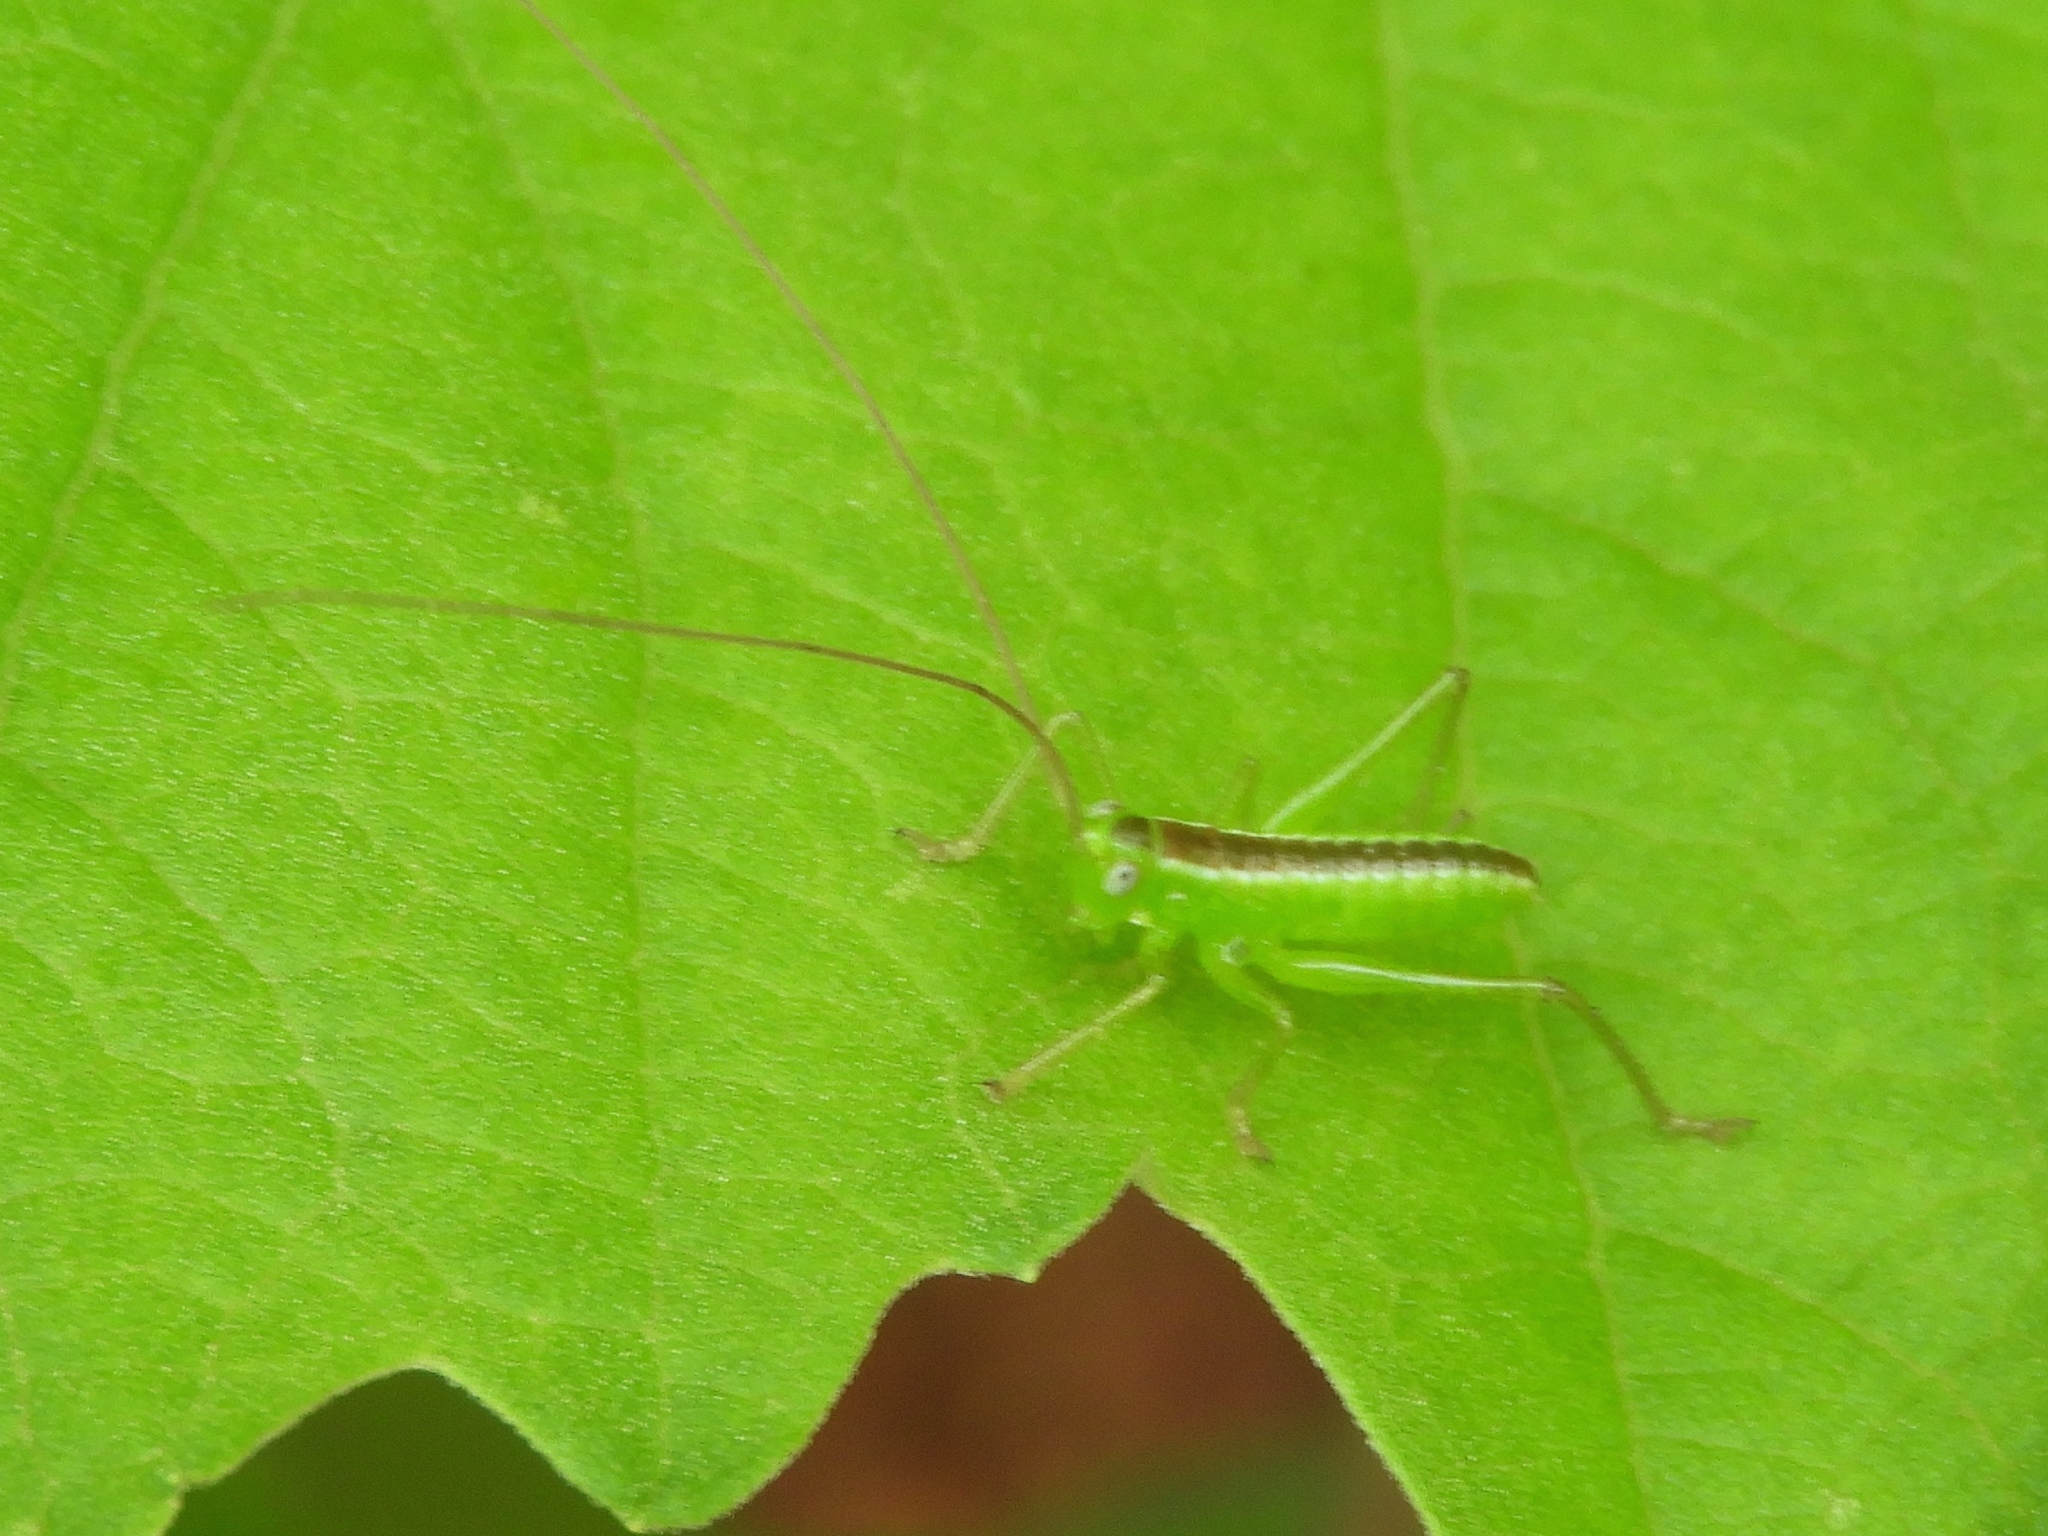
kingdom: Animalia
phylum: Arthropoda
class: Insecta
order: Orthoptera
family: Tettigoniidae
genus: Conocephalus
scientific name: Conocephalus
